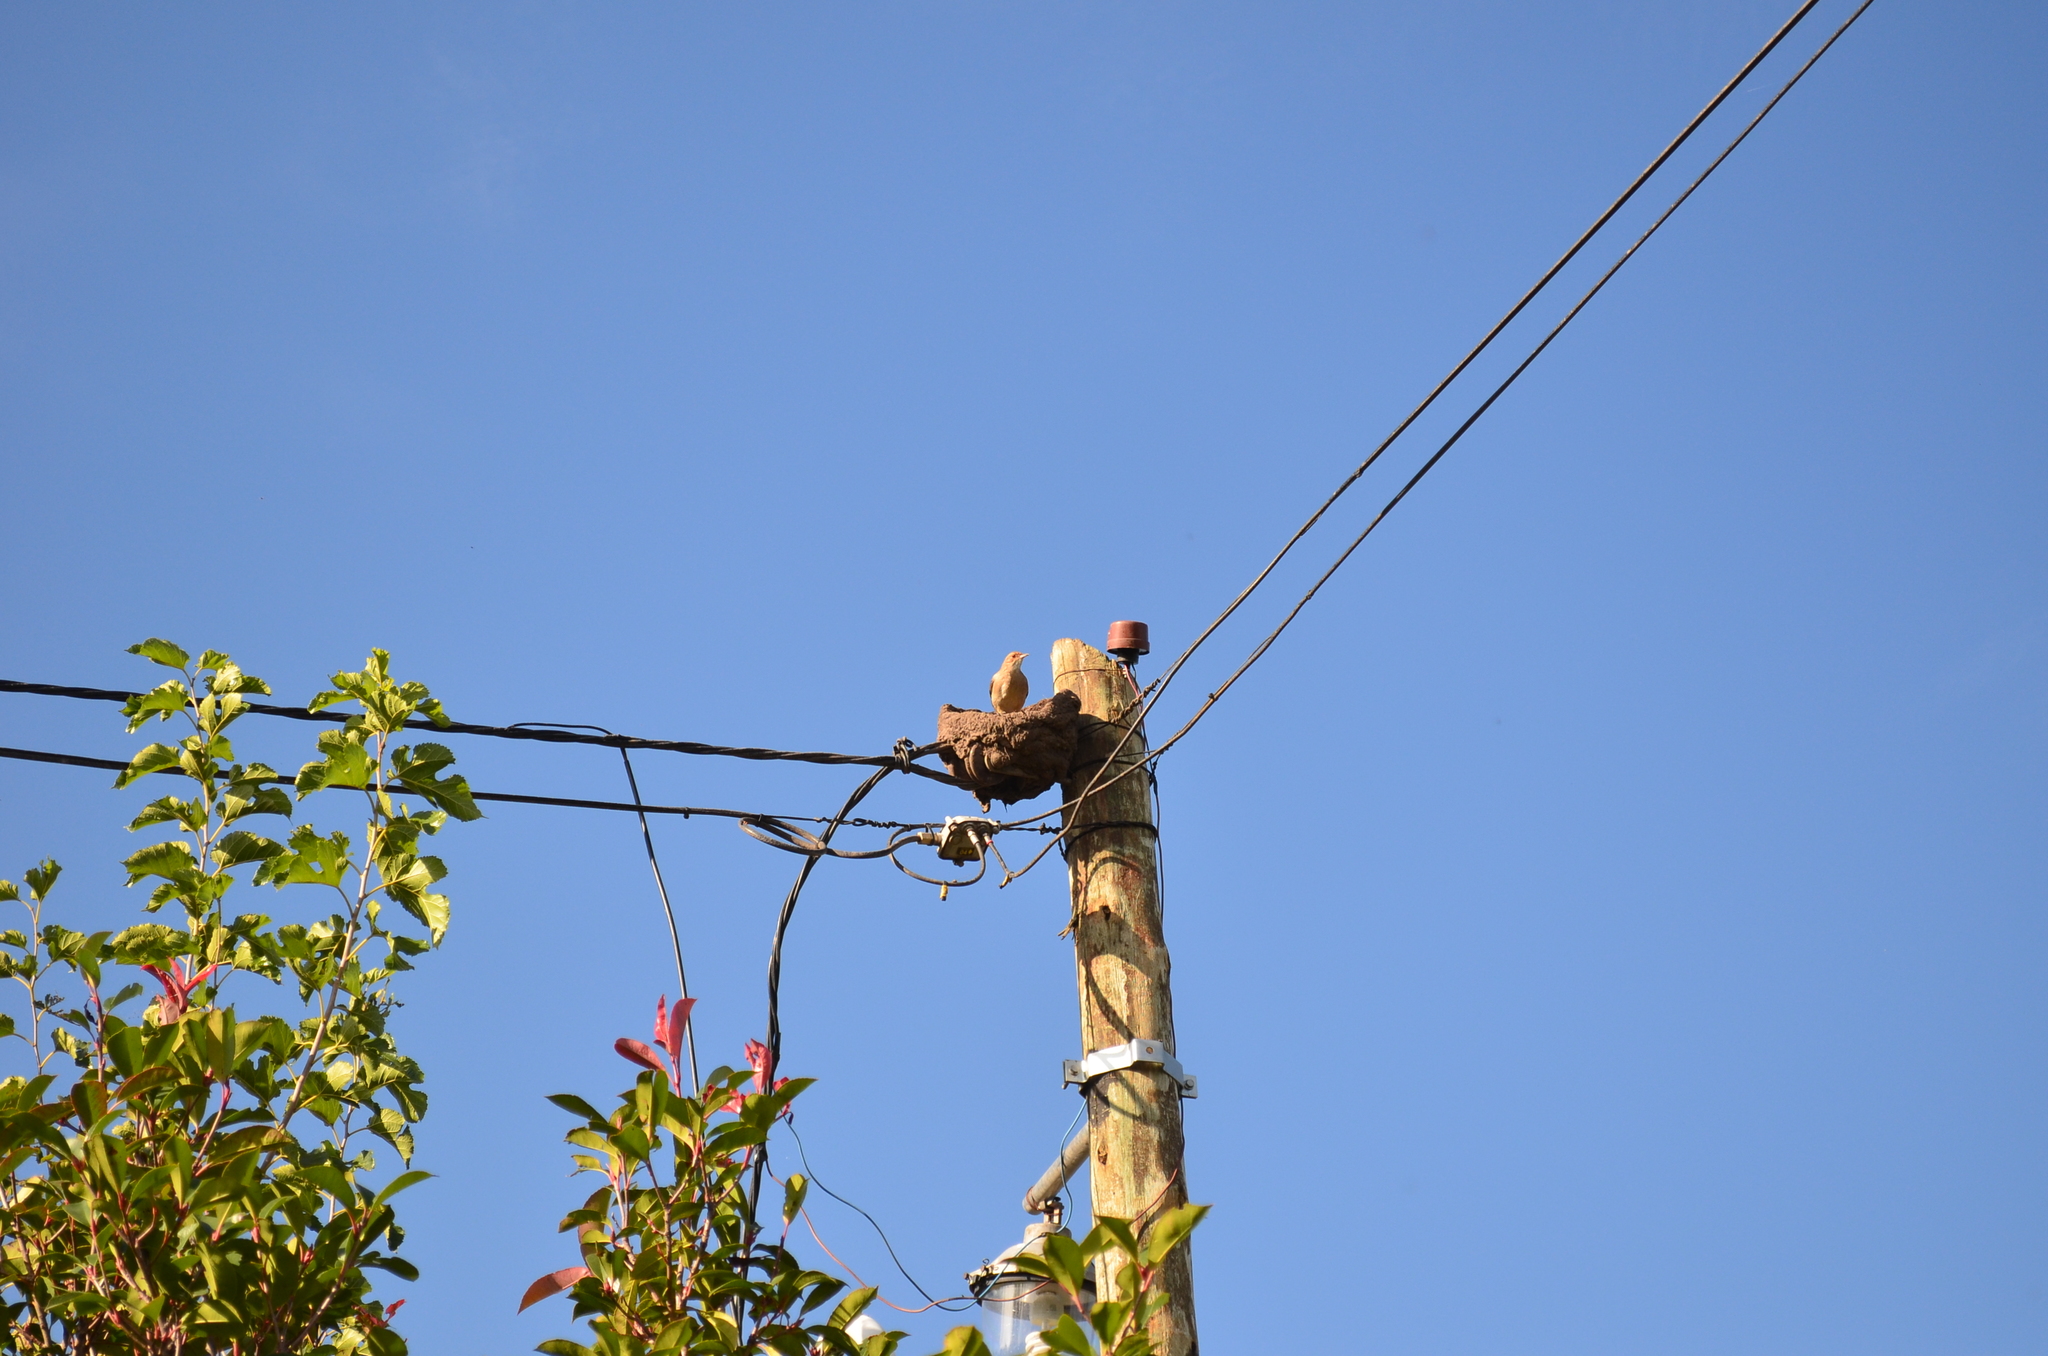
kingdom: Animalia
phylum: Chordata
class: Aves
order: Passeriformes
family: Furnariidae
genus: Furnarius
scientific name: Furnarius rufus
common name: Rufous hornero
